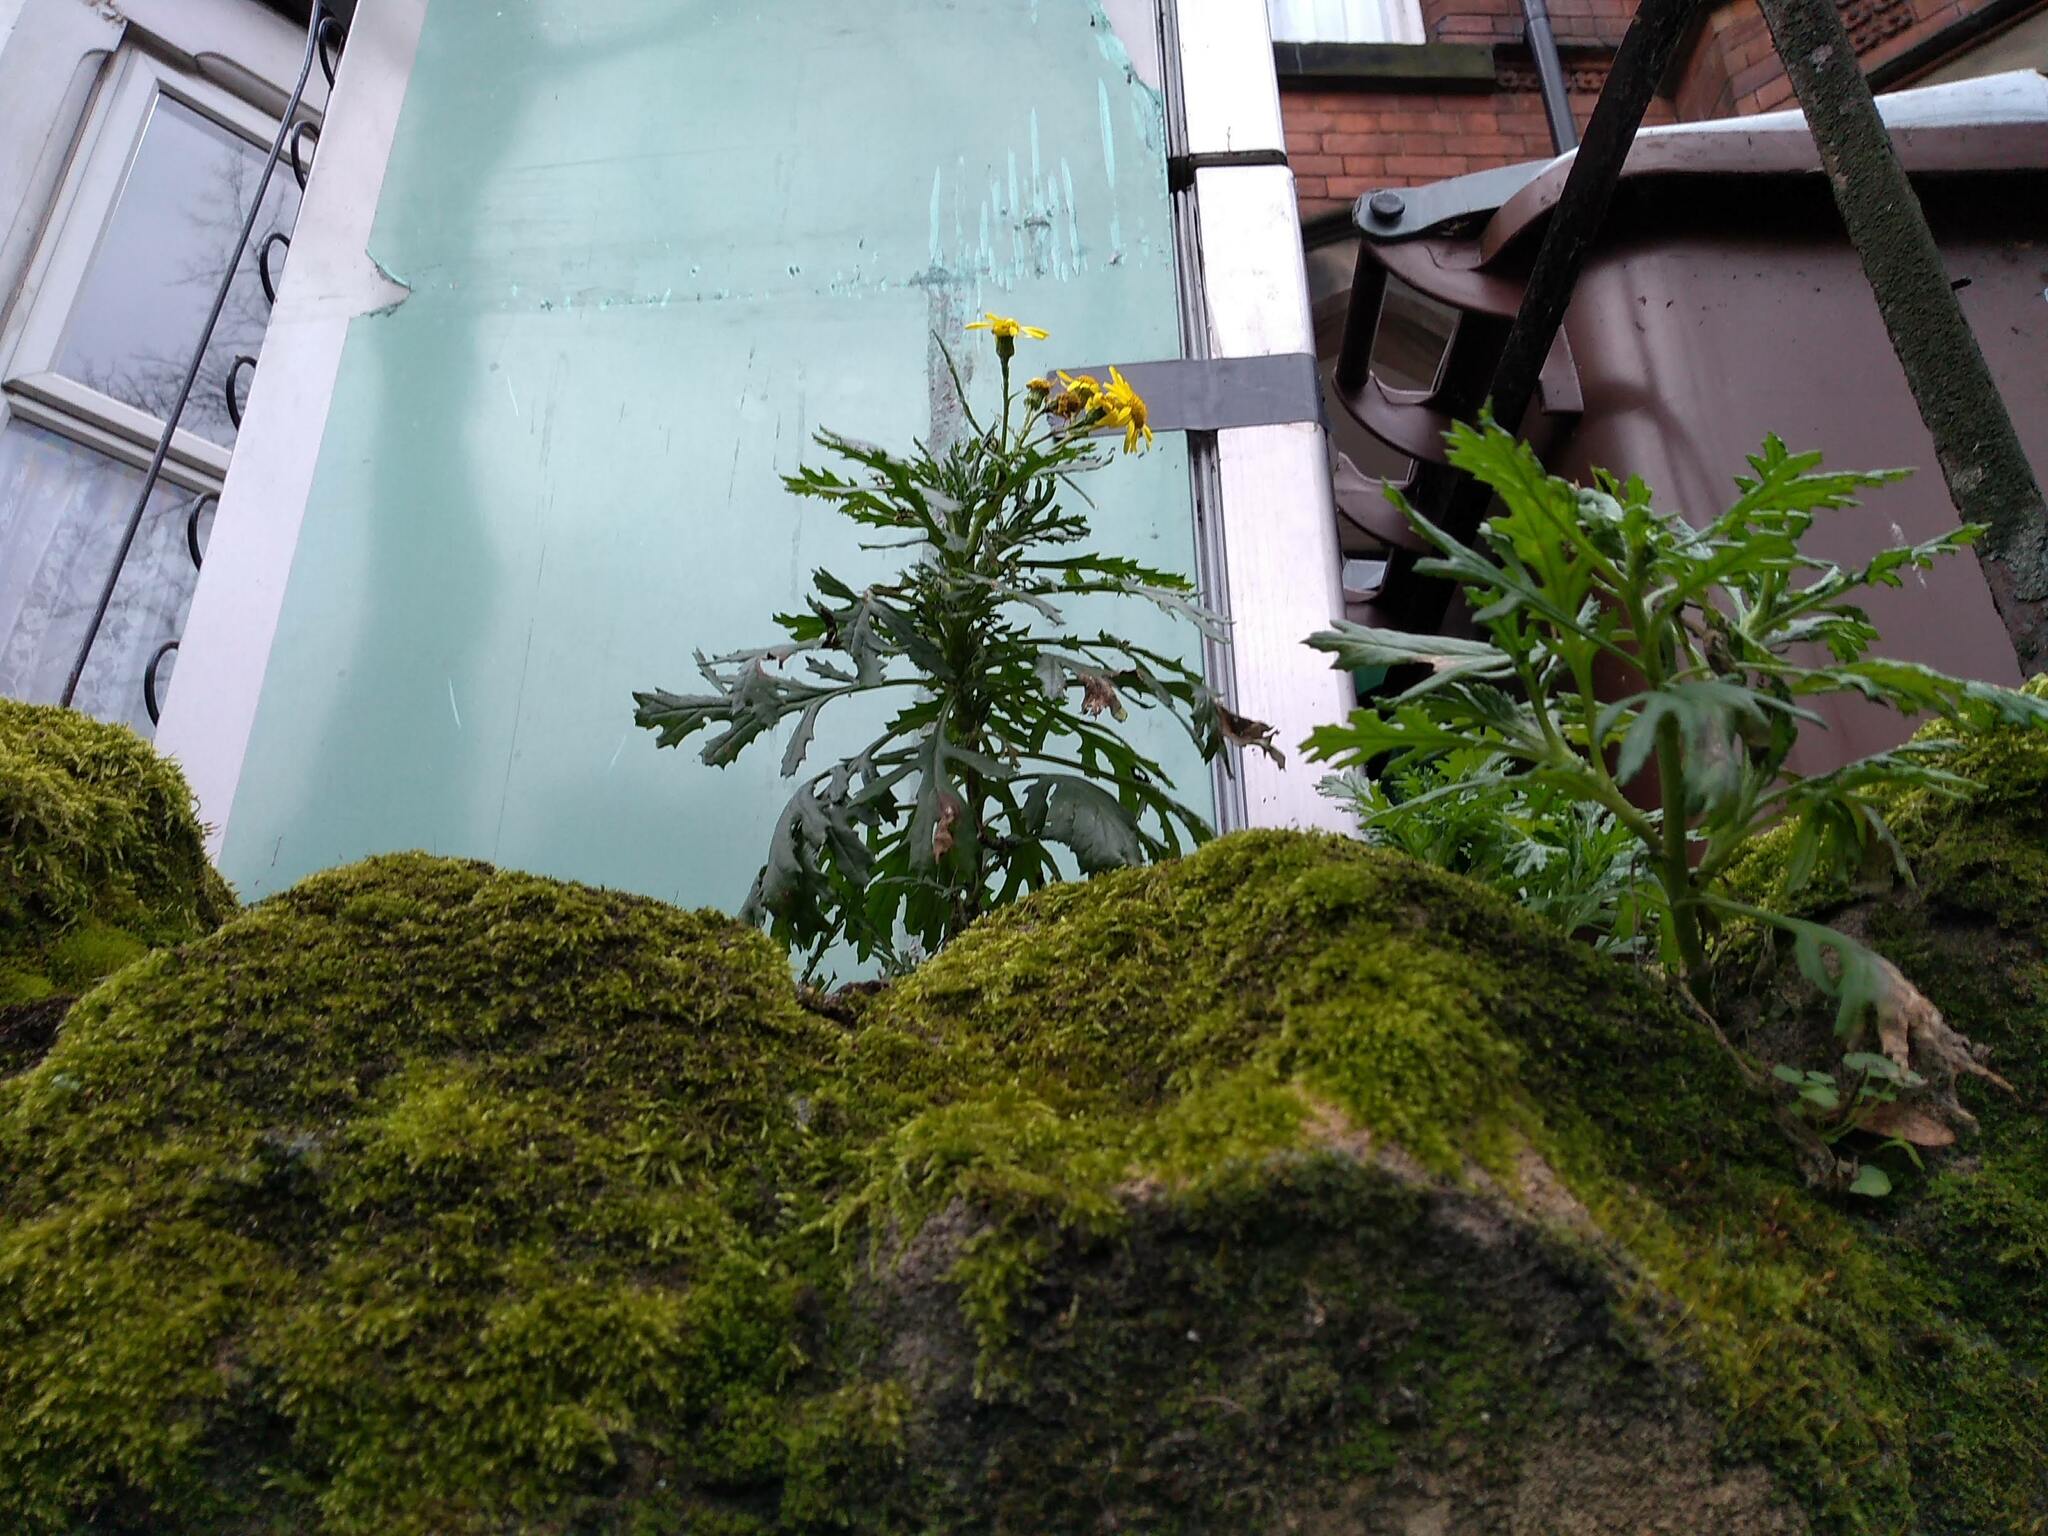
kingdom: Plantae
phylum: Tracheophyta
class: Magnoliopsida
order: Asterales
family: Asteraceae
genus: Senecio
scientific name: Senecio squalidus
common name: Oxford ragwort
